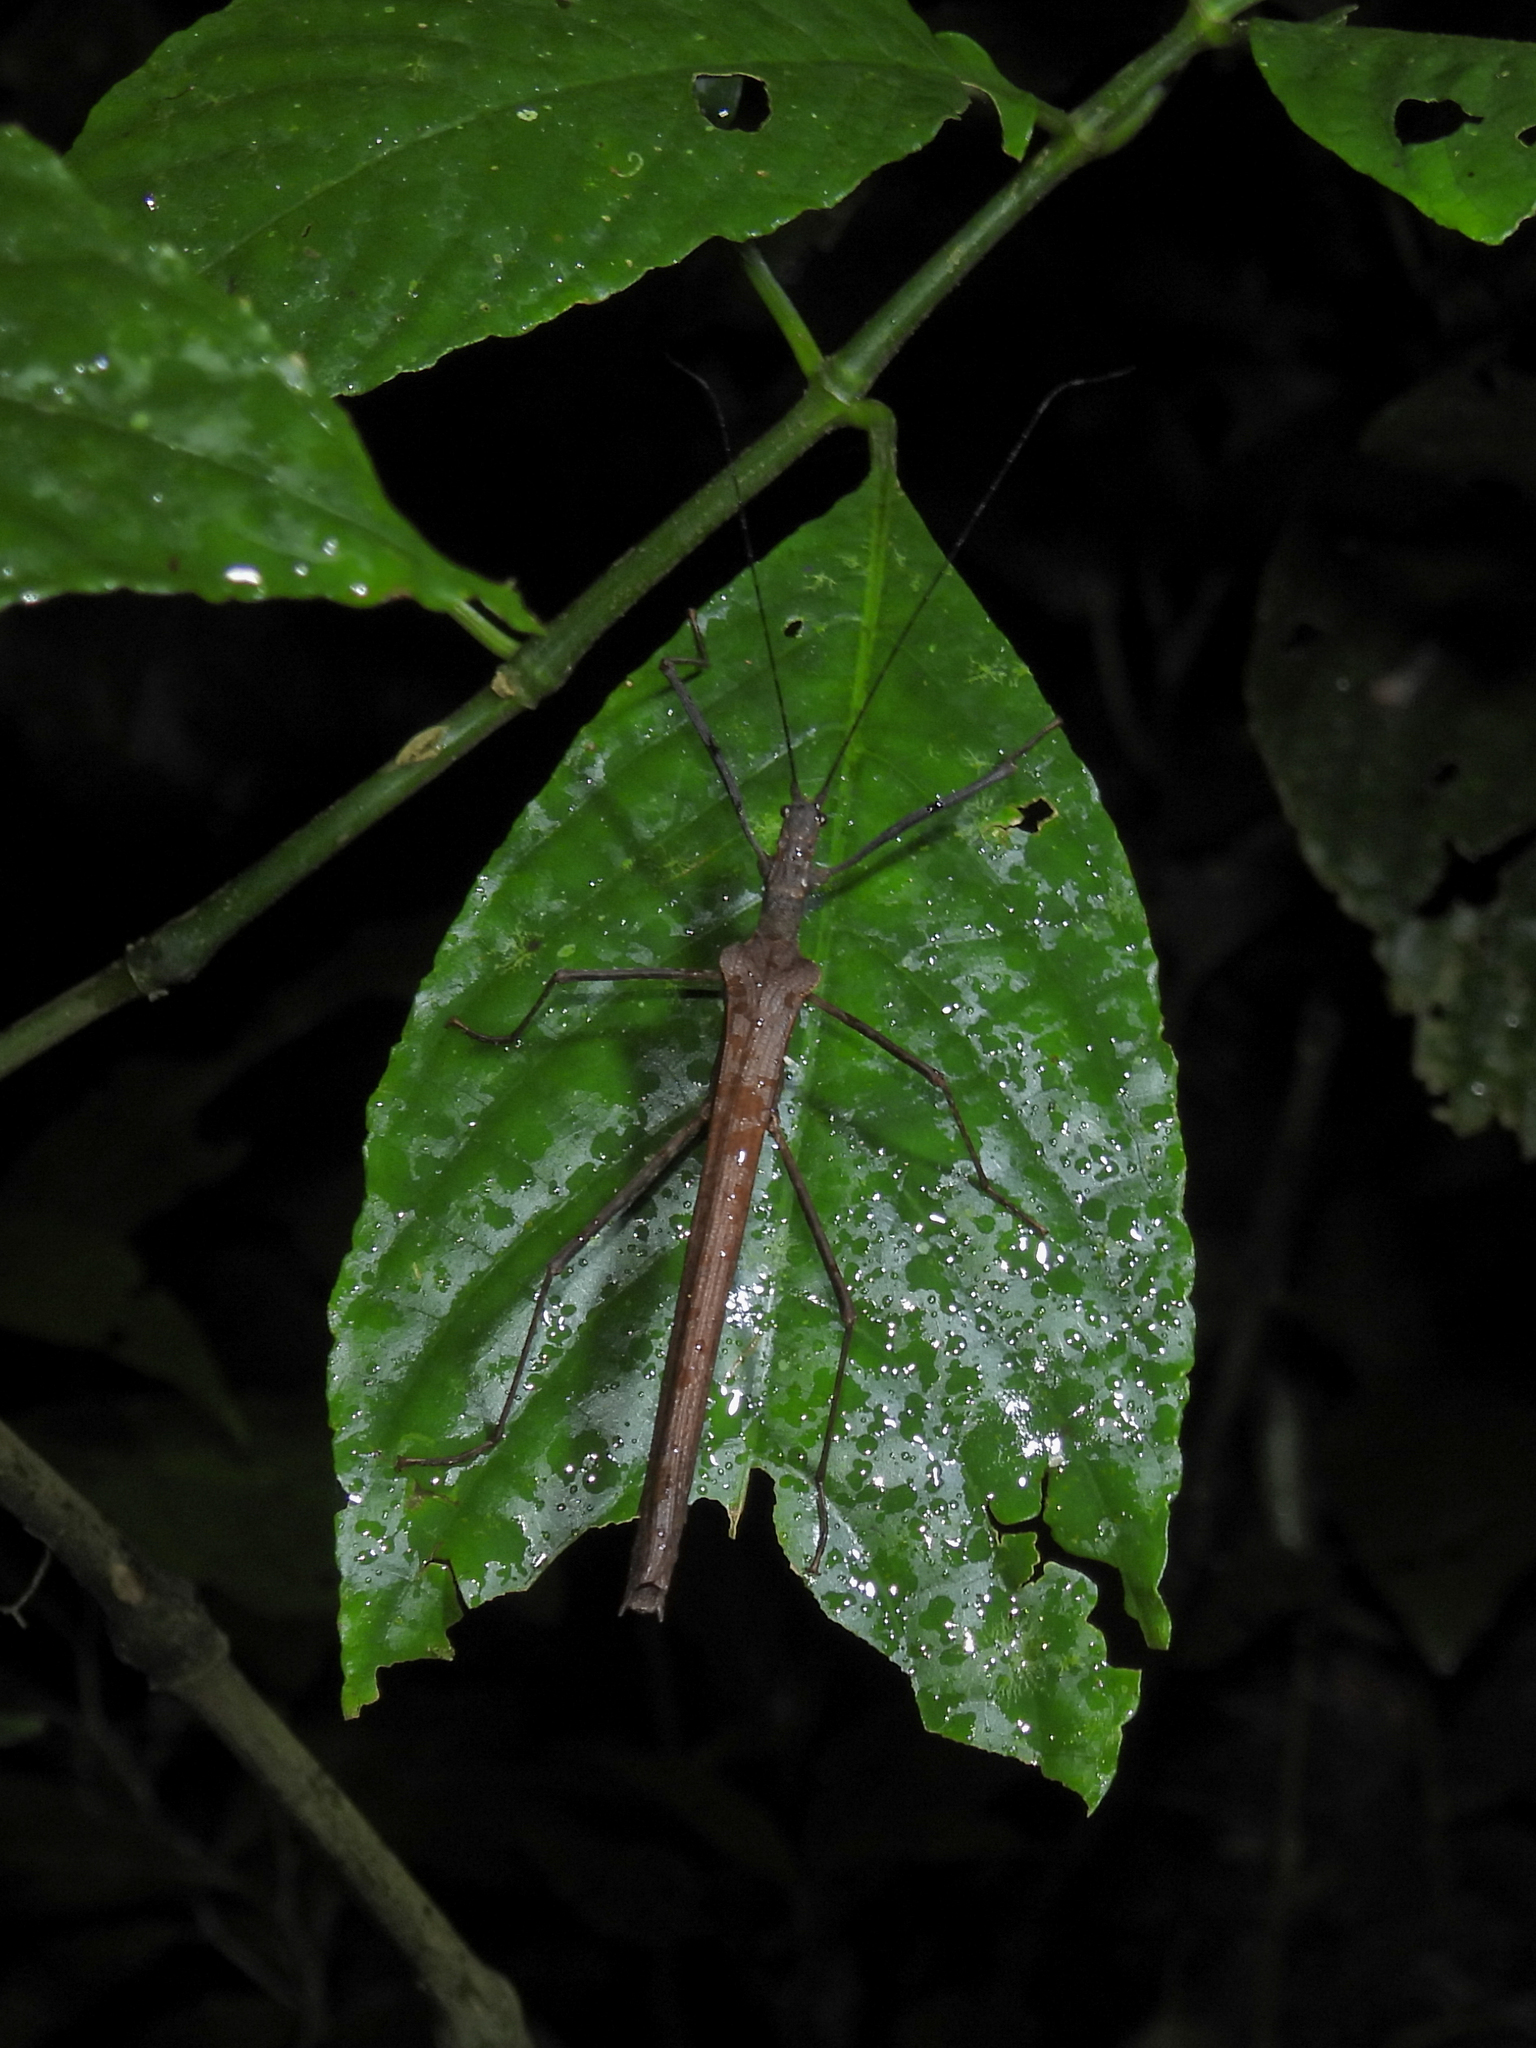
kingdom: Animalia
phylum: Arthropoda
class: Insecta
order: Phasmida
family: Pseudophasmatidae
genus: Pseudophasma
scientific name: Pseudophasma unicolor
